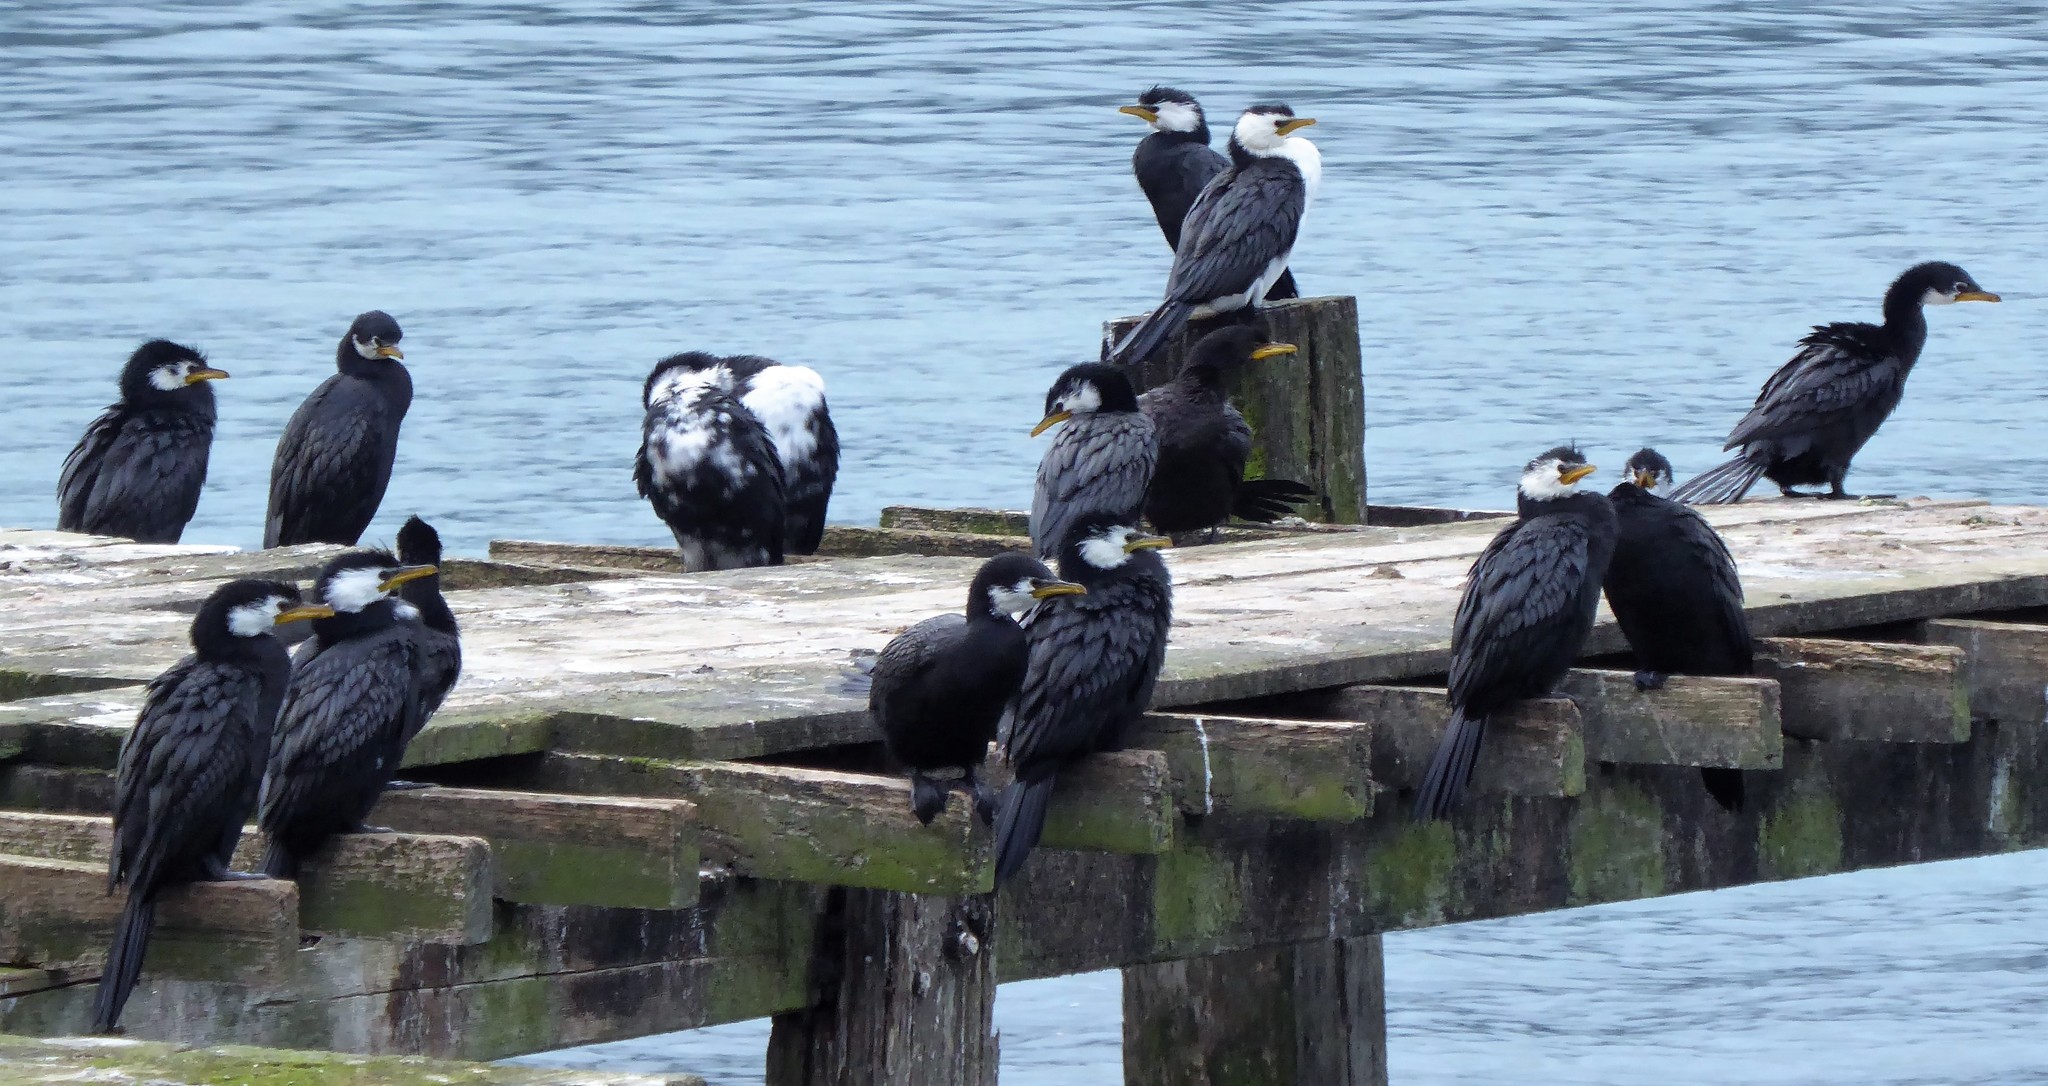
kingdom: Animalia
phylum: Chordata
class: Aves
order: Suliformes
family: Phalacrocoracidae
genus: Microcarbo
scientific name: Microcarbo melanoleucos
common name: Little pied cormorant
